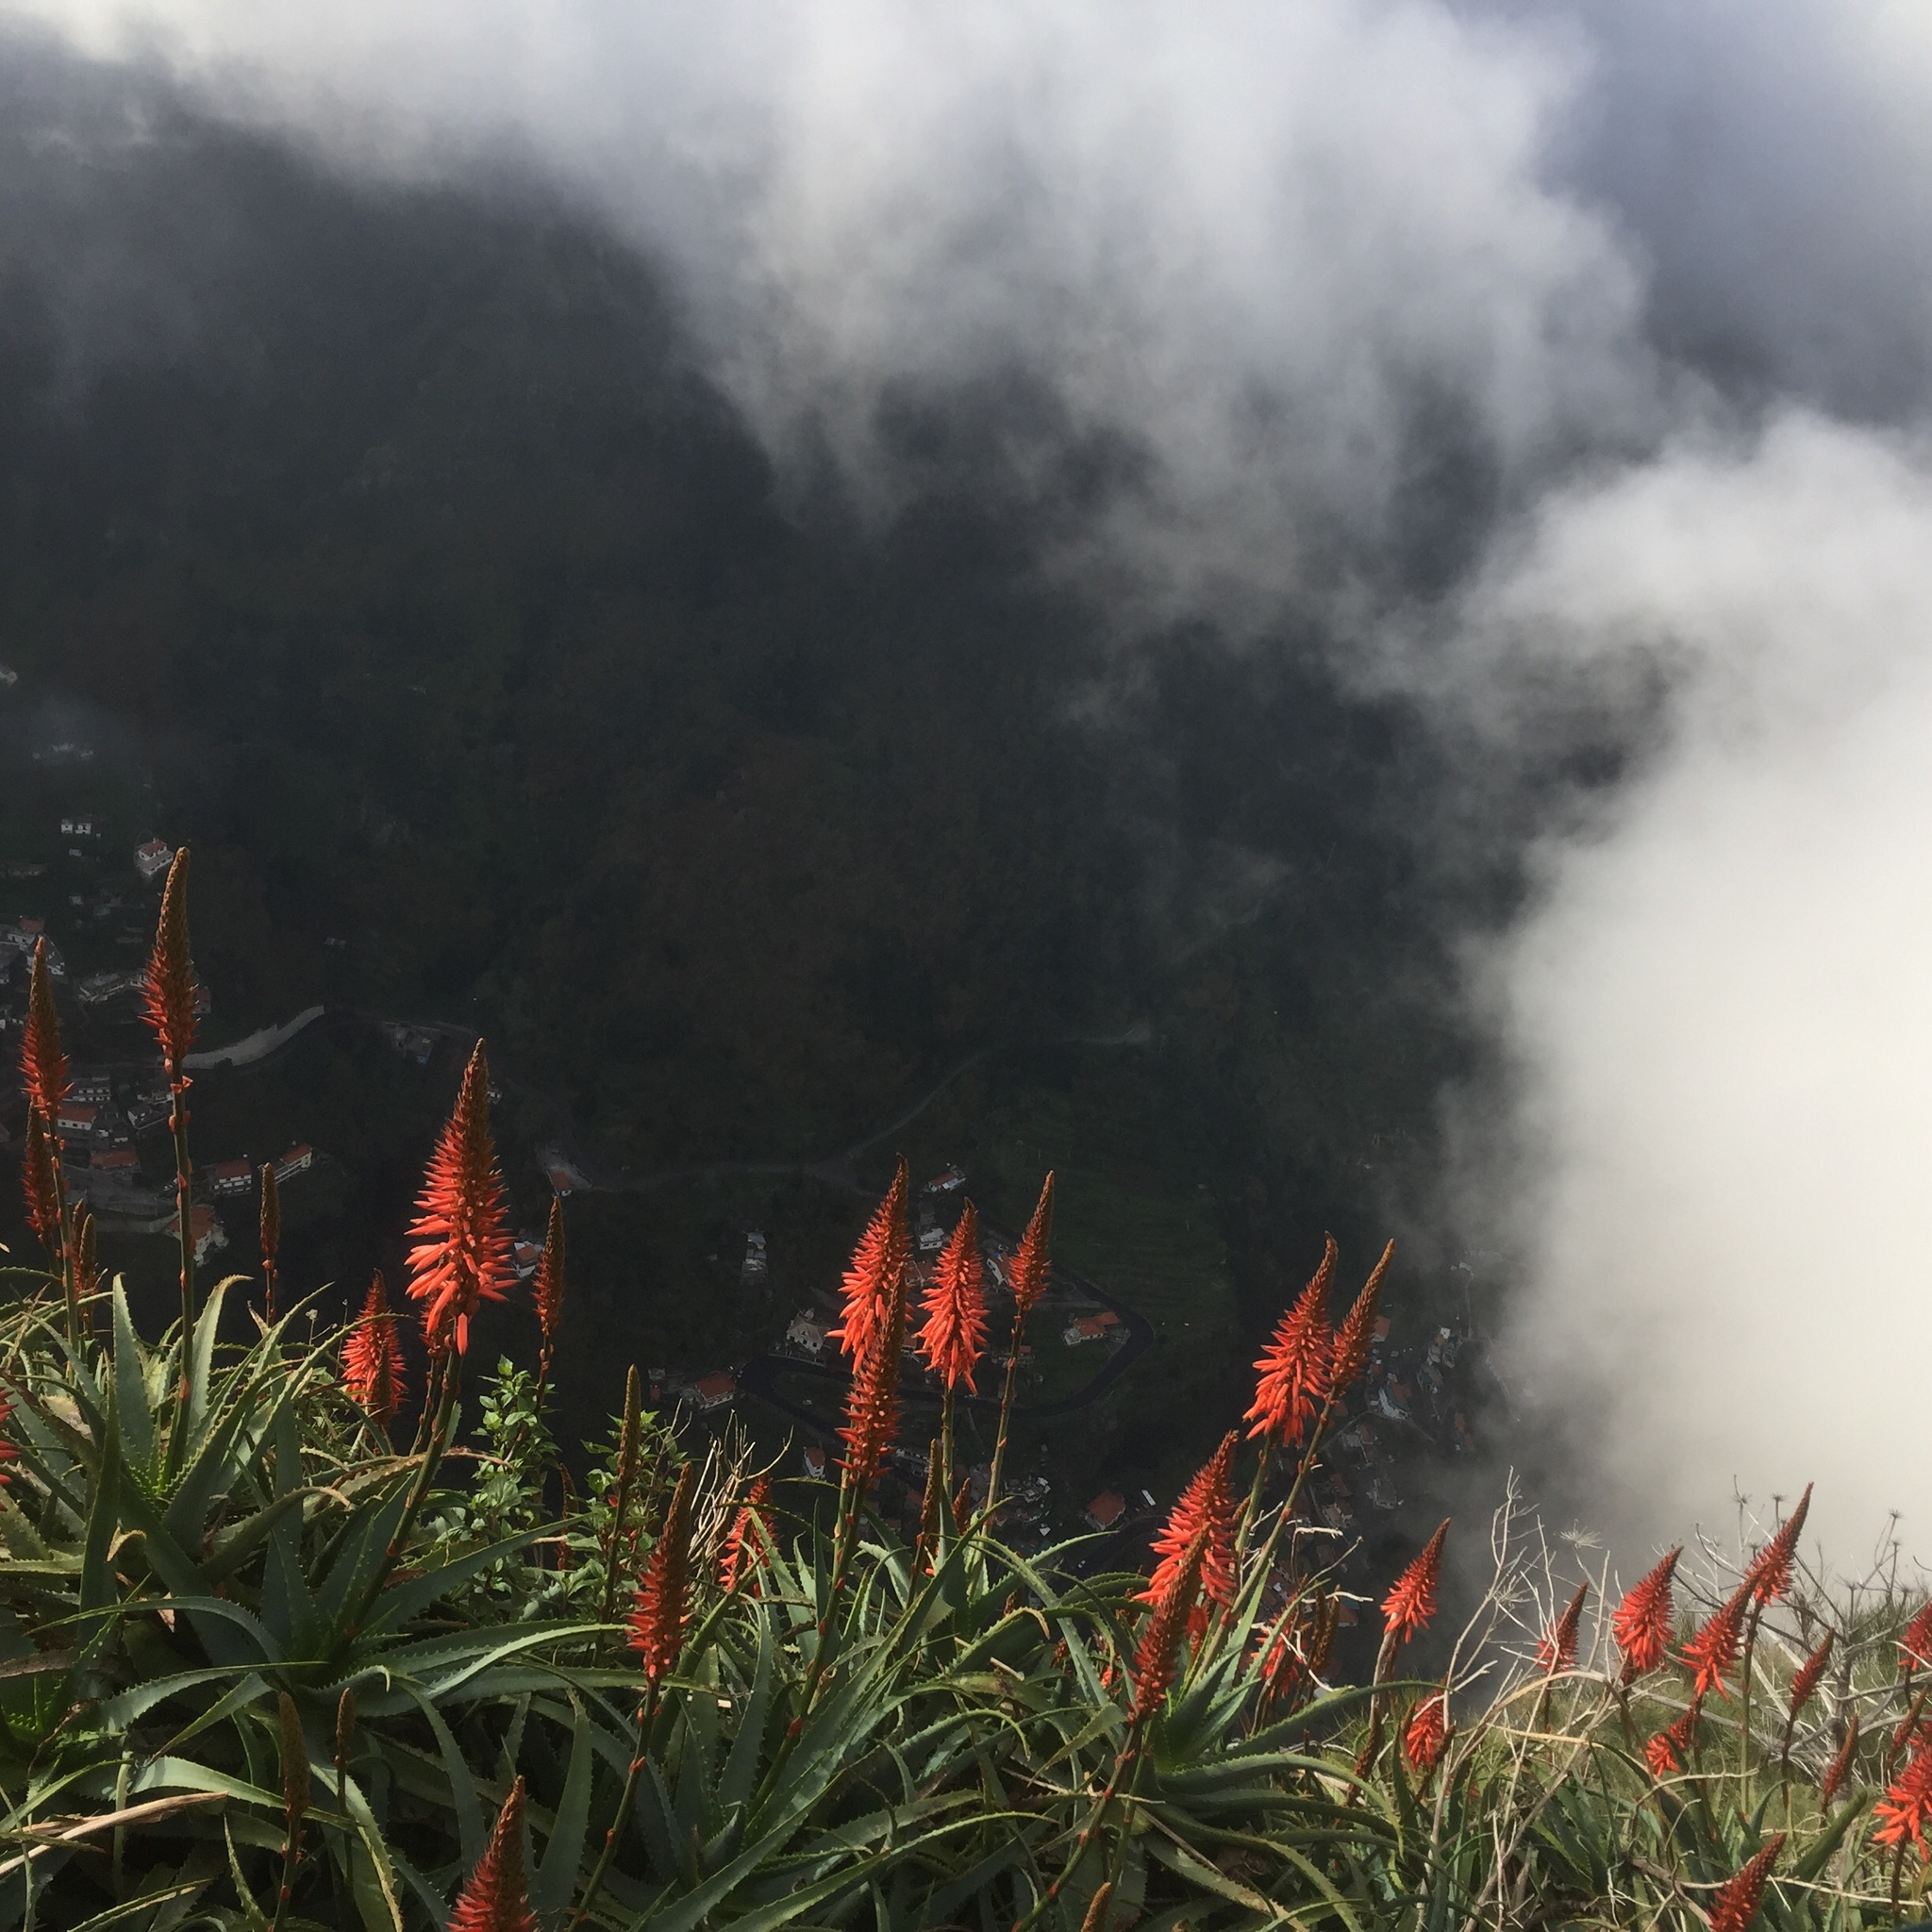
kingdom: Plantae
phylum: Tracheophyta
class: Liliopsida
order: Asparagales
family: Asphodelaceae
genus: Aloe
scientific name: Aloe arborescens
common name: Candelabra aloe
